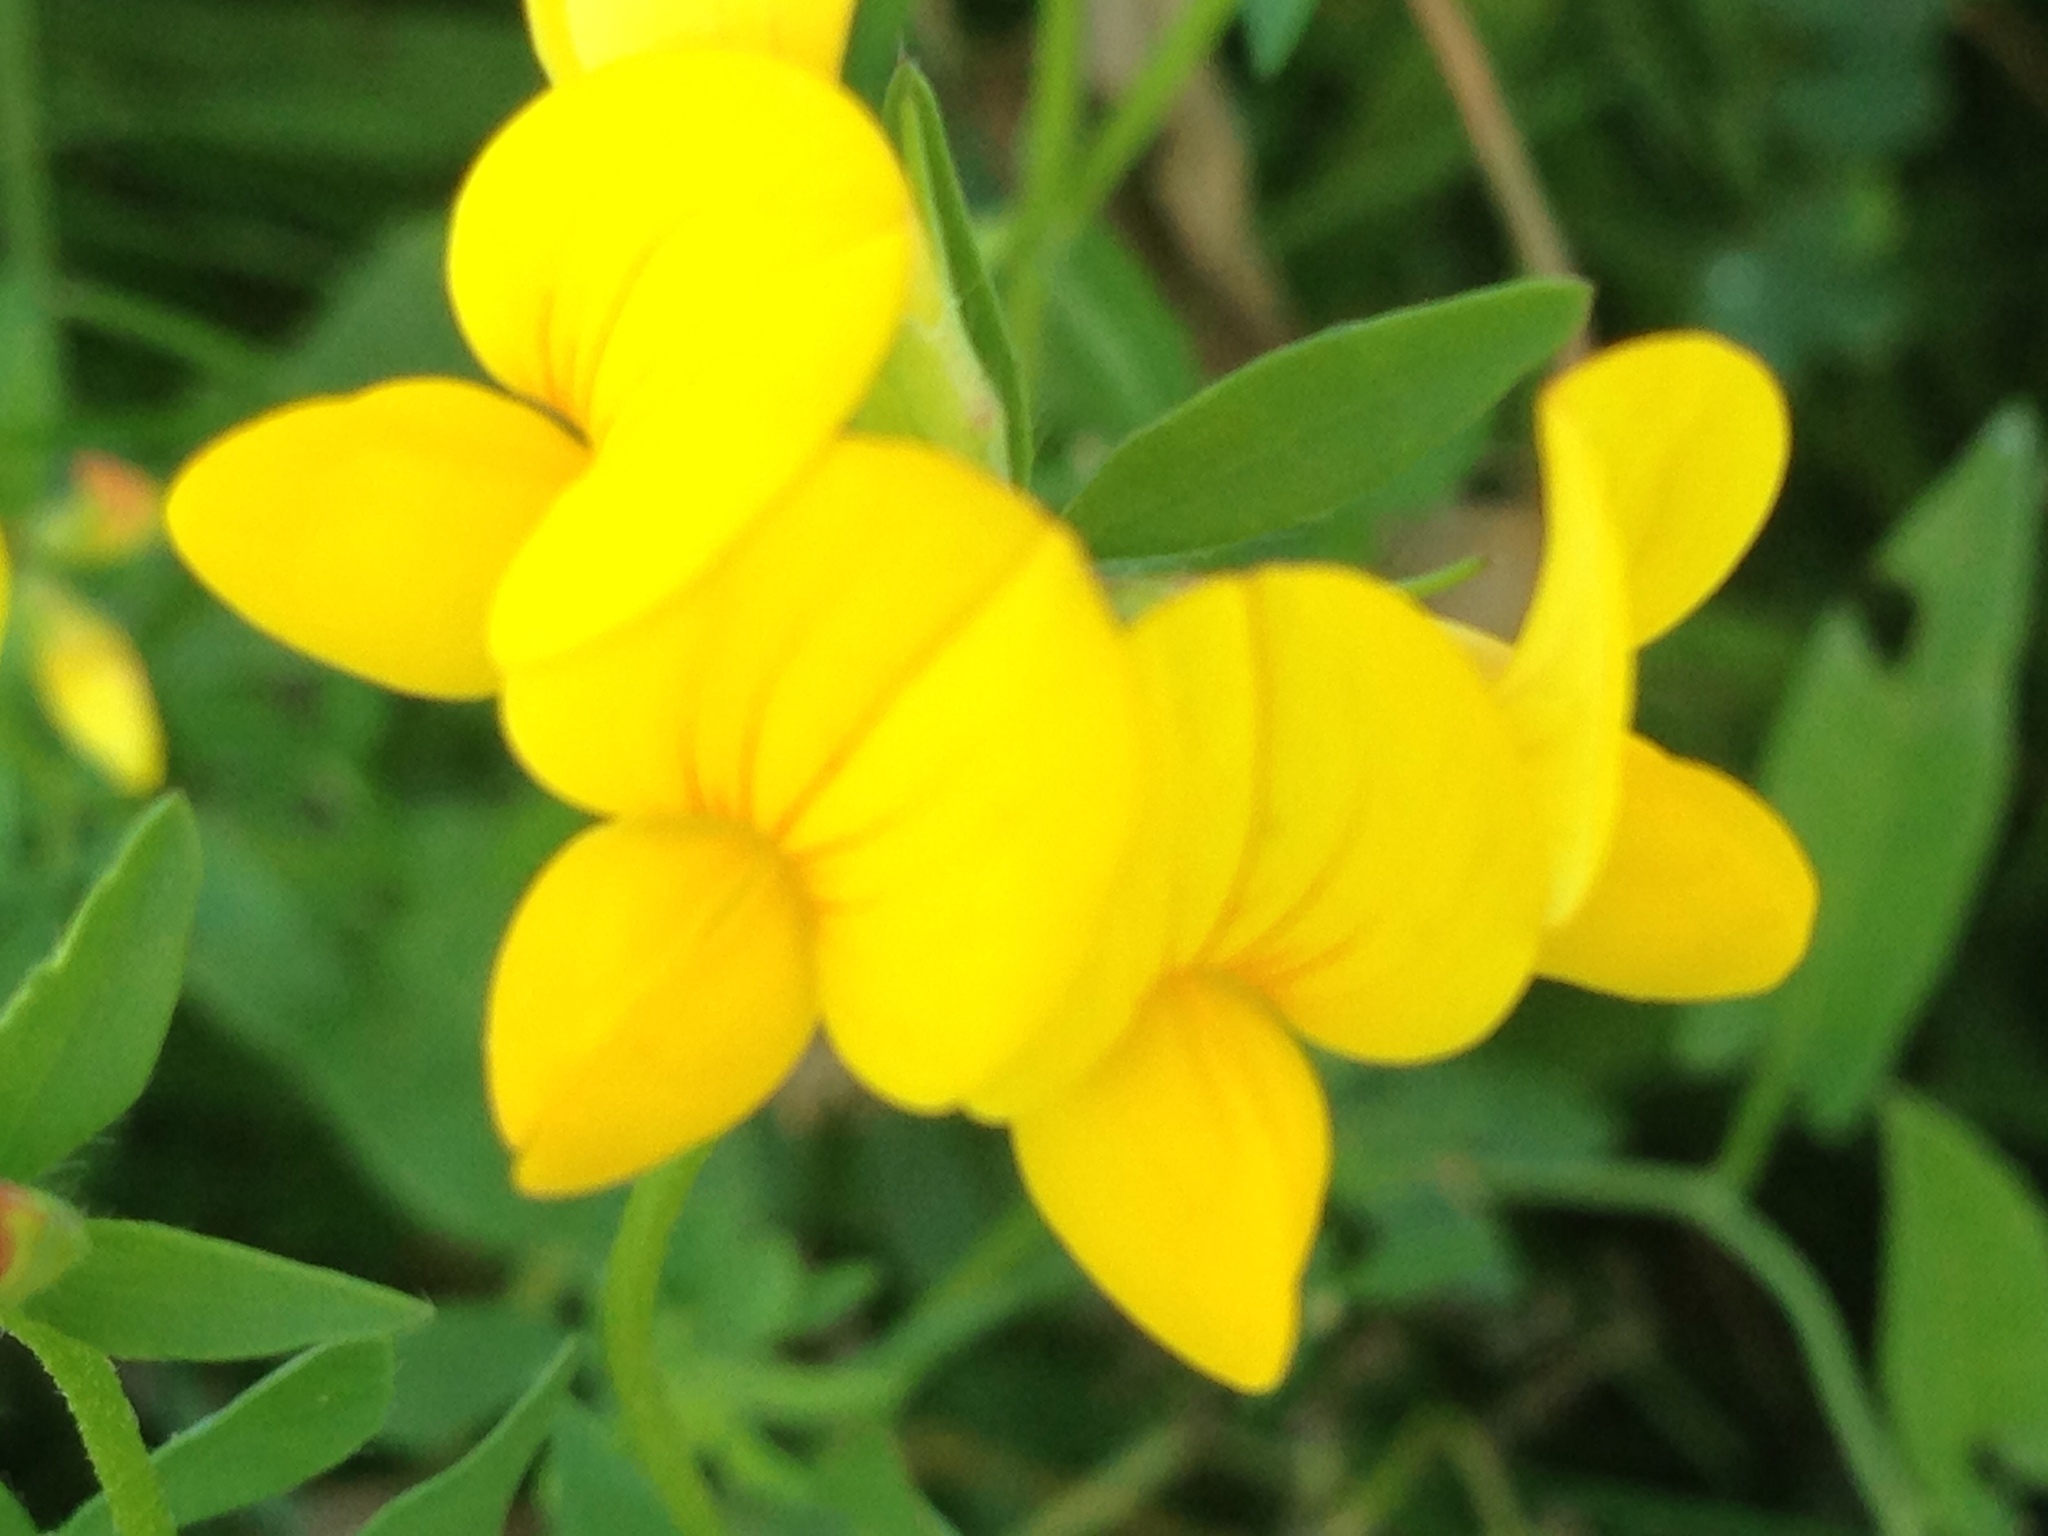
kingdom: Plantae
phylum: Tracheophyta
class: Magnoliopsida
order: Fabales
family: Fabaceae
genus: Lotus
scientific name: Lotus corniculatus
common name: Common bird's-foot-trefoil
